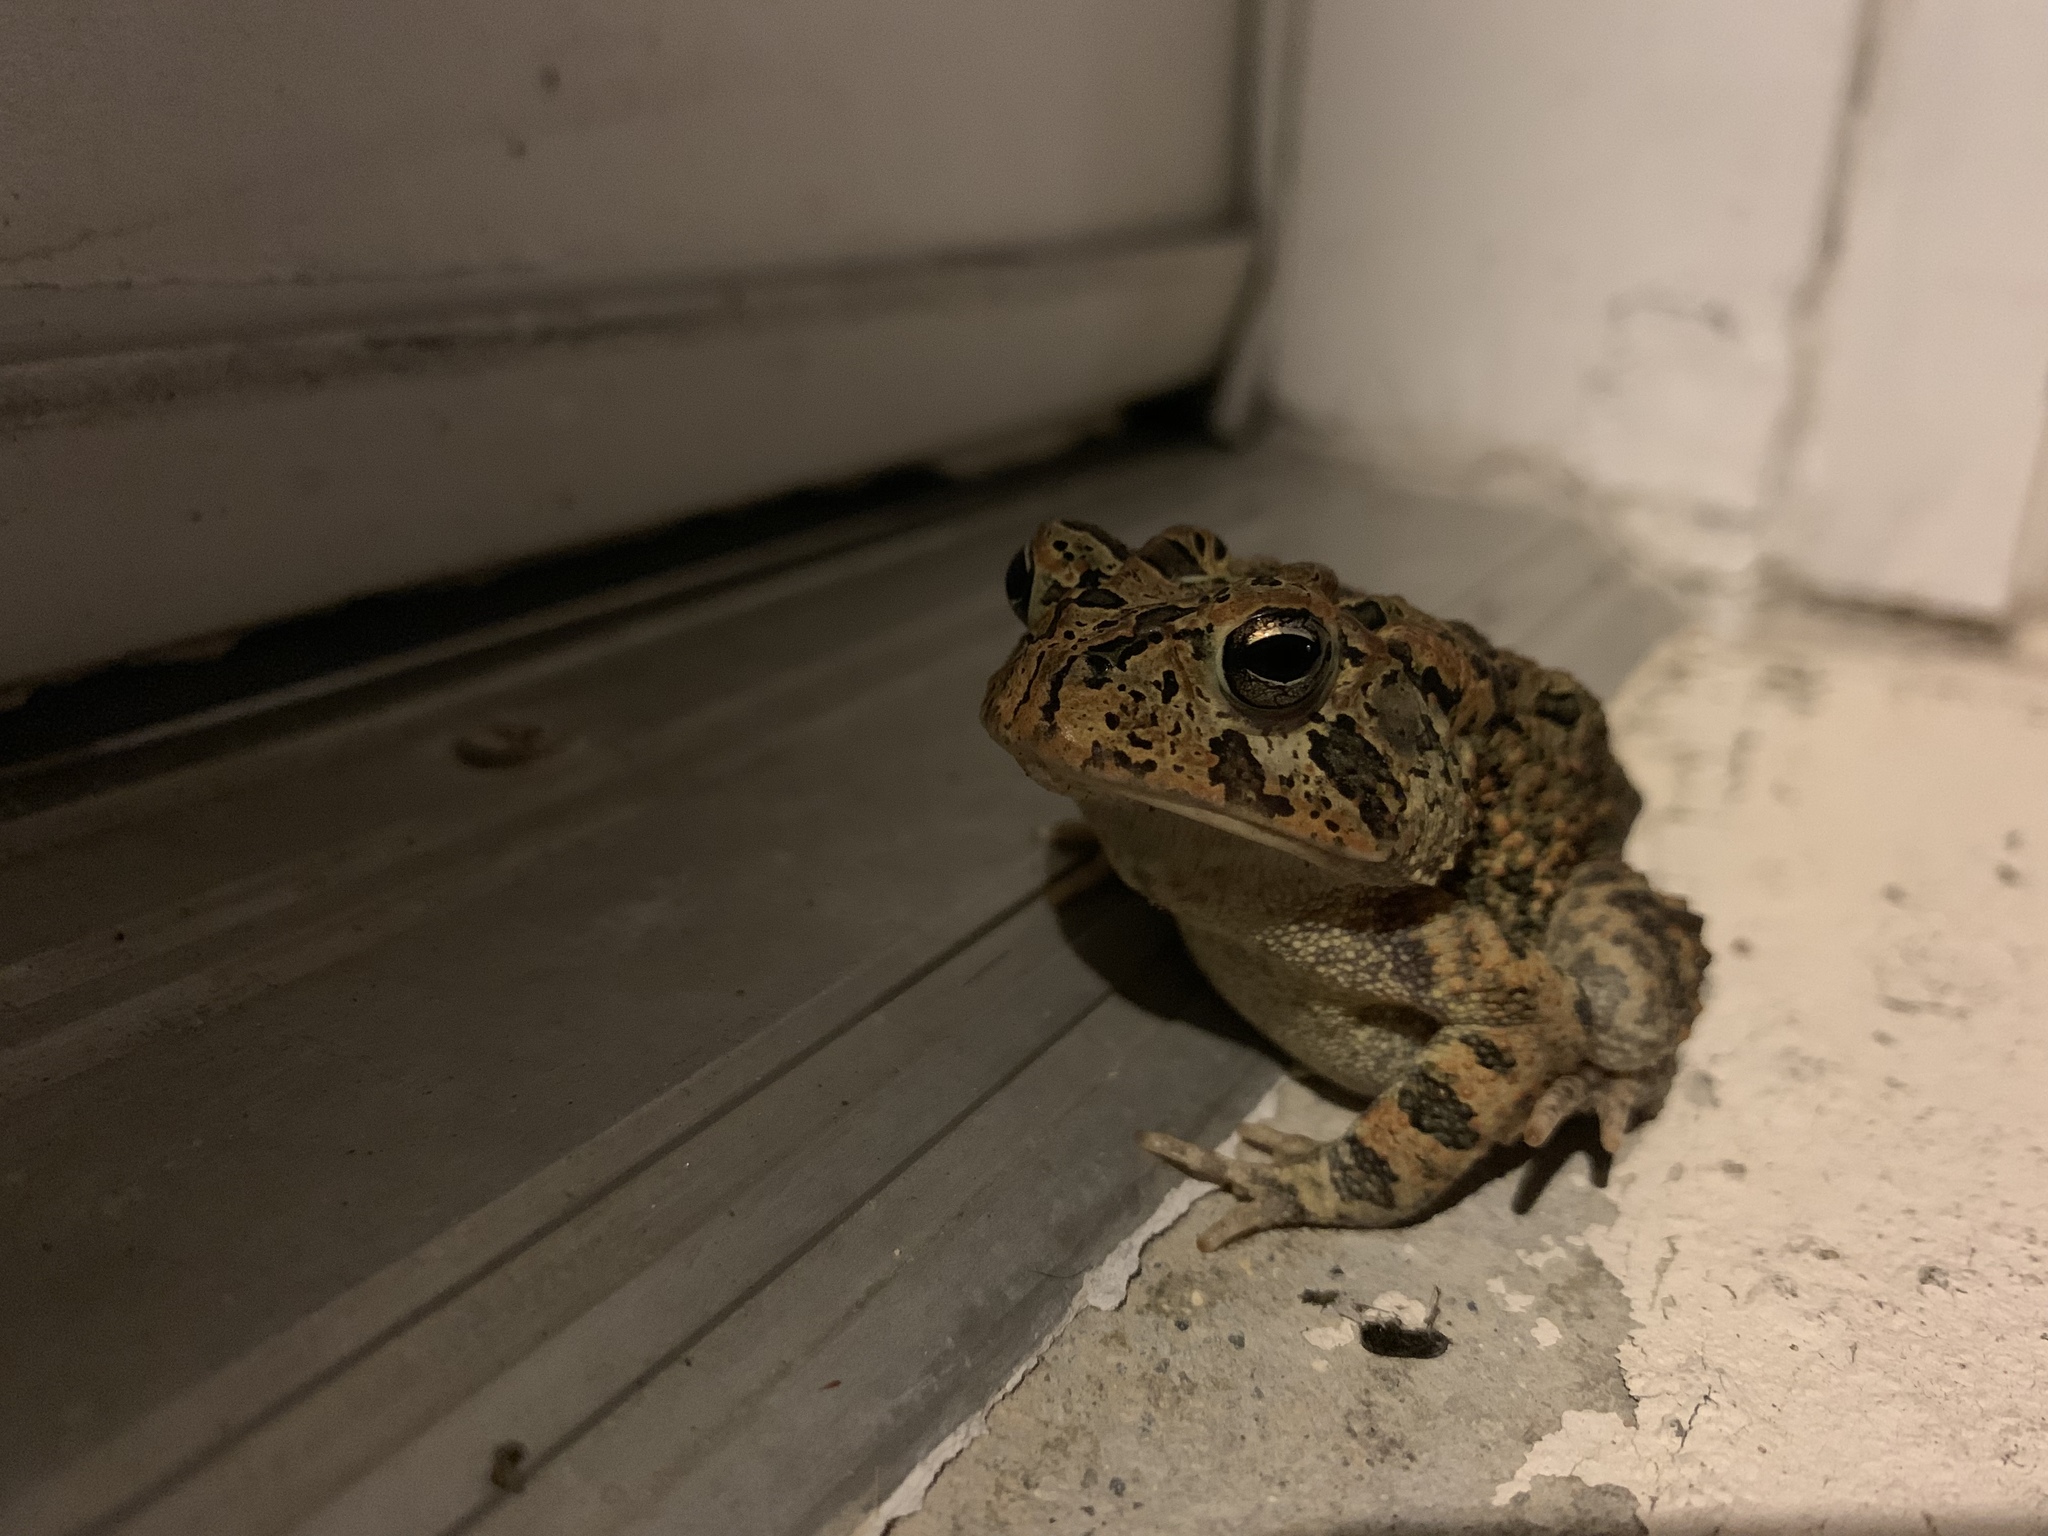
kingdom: Animalia
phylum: Chordata
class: Amphibia
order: Anura
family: Bufonidae
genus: Anaxyrus
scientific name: Anaxyrus terrestris
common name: Southern toad
